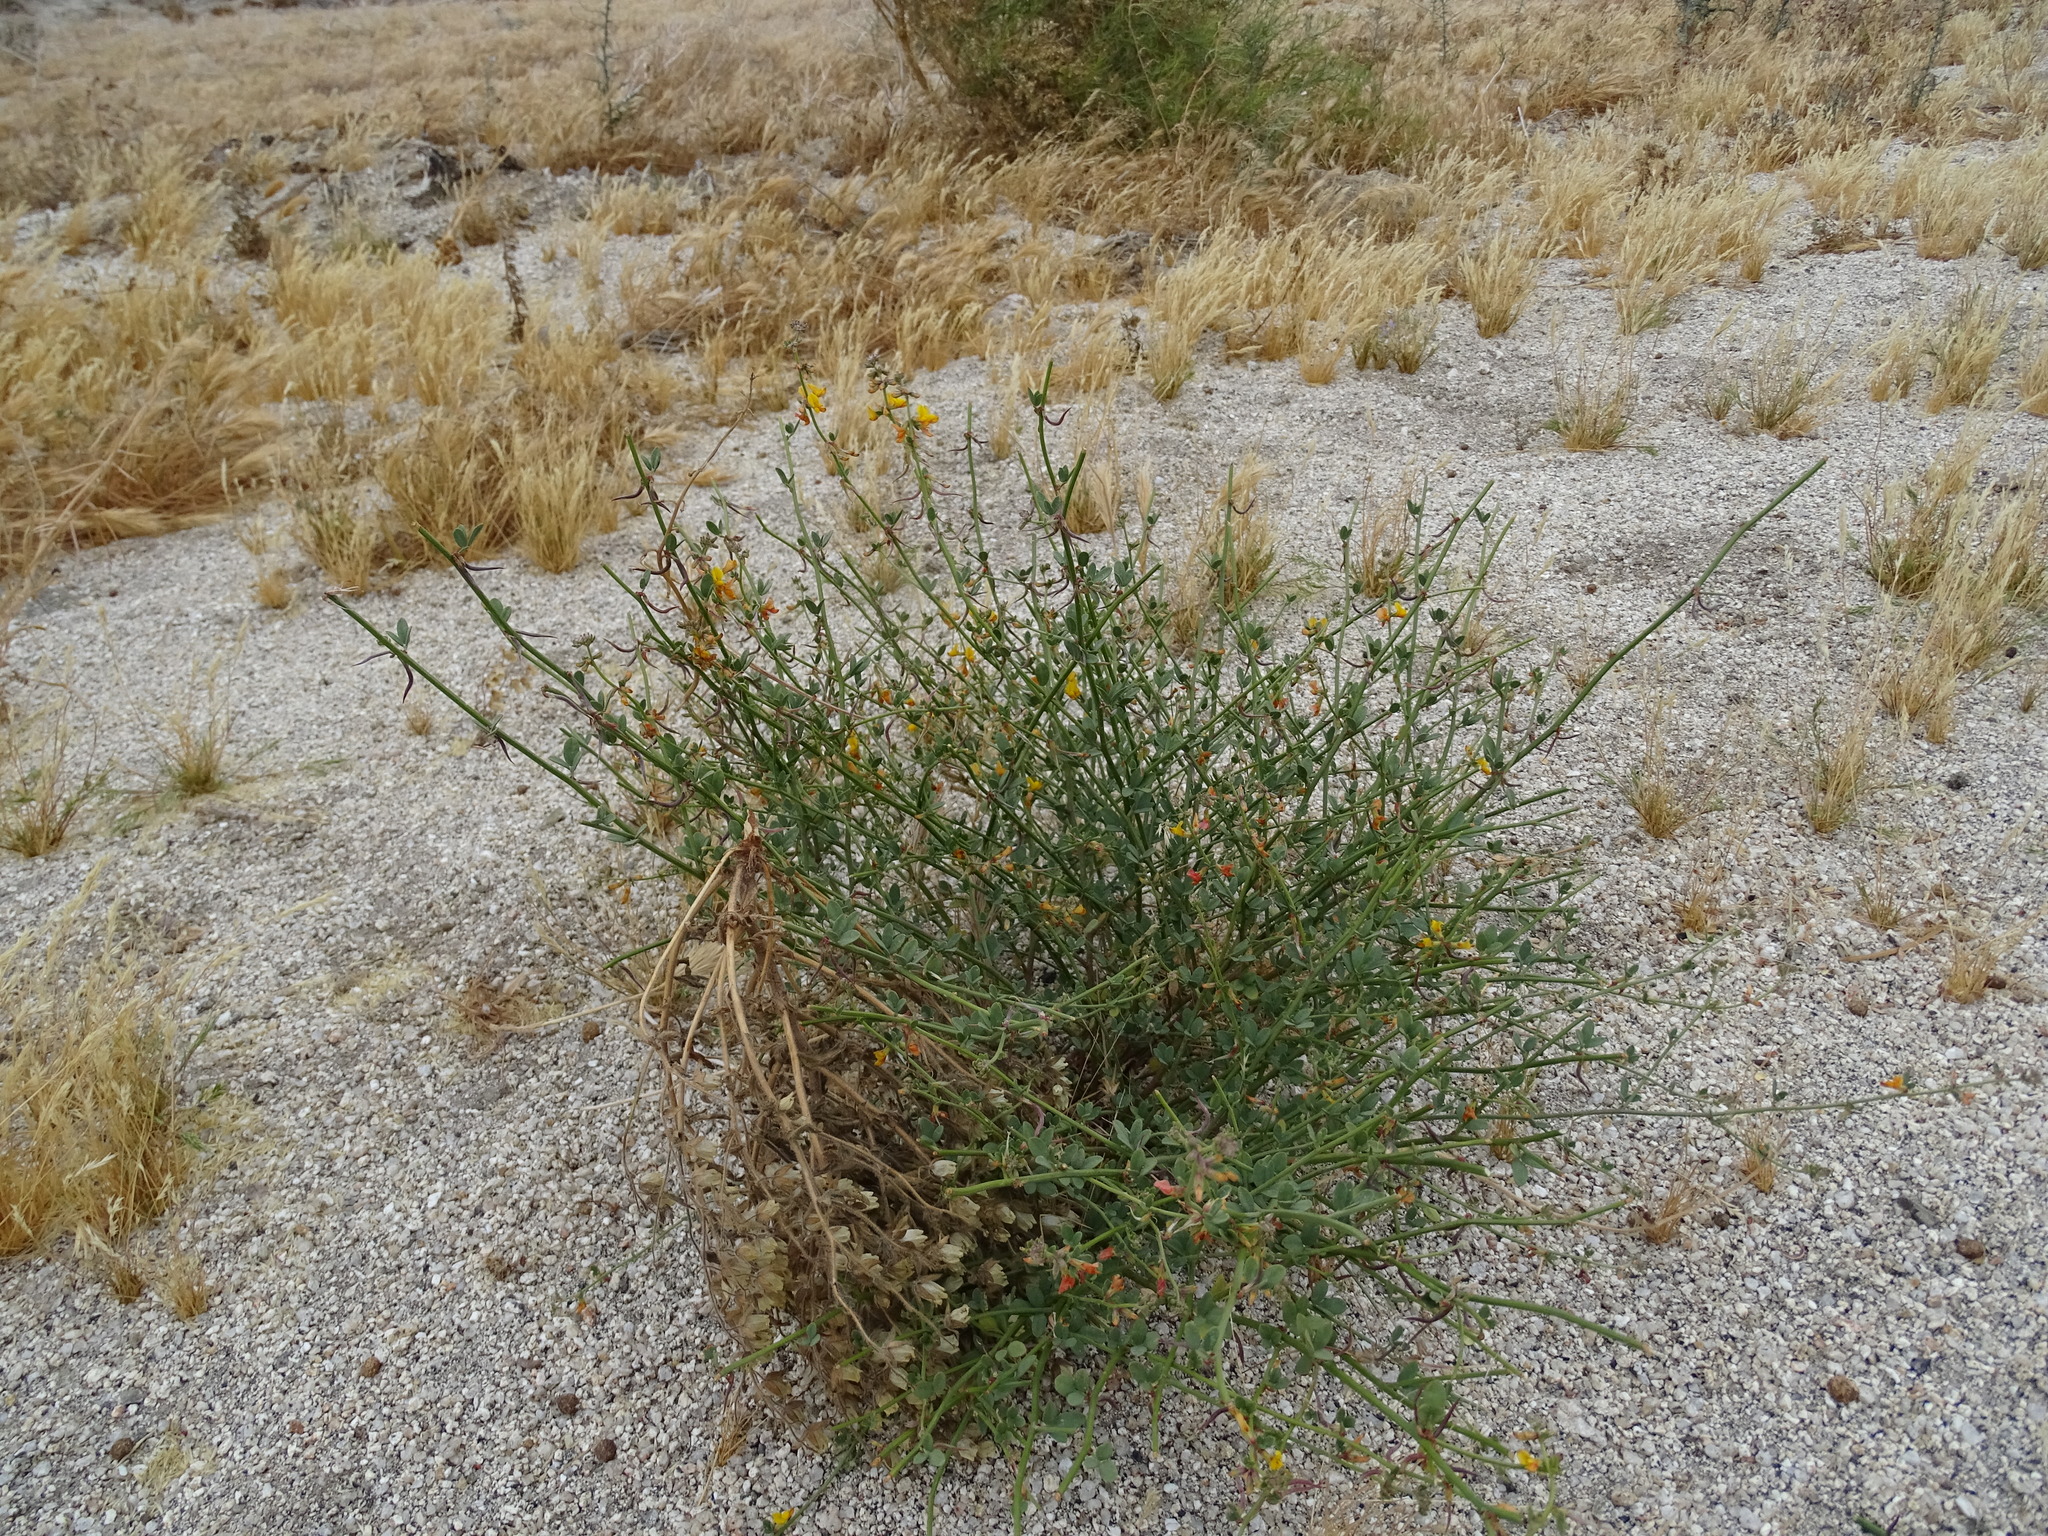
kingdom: Plantae
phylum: Tracheophyta
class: Magnoliopsida
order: Fabales
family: Fabaceae
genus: Acmispon
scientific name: Acmispon glaber
